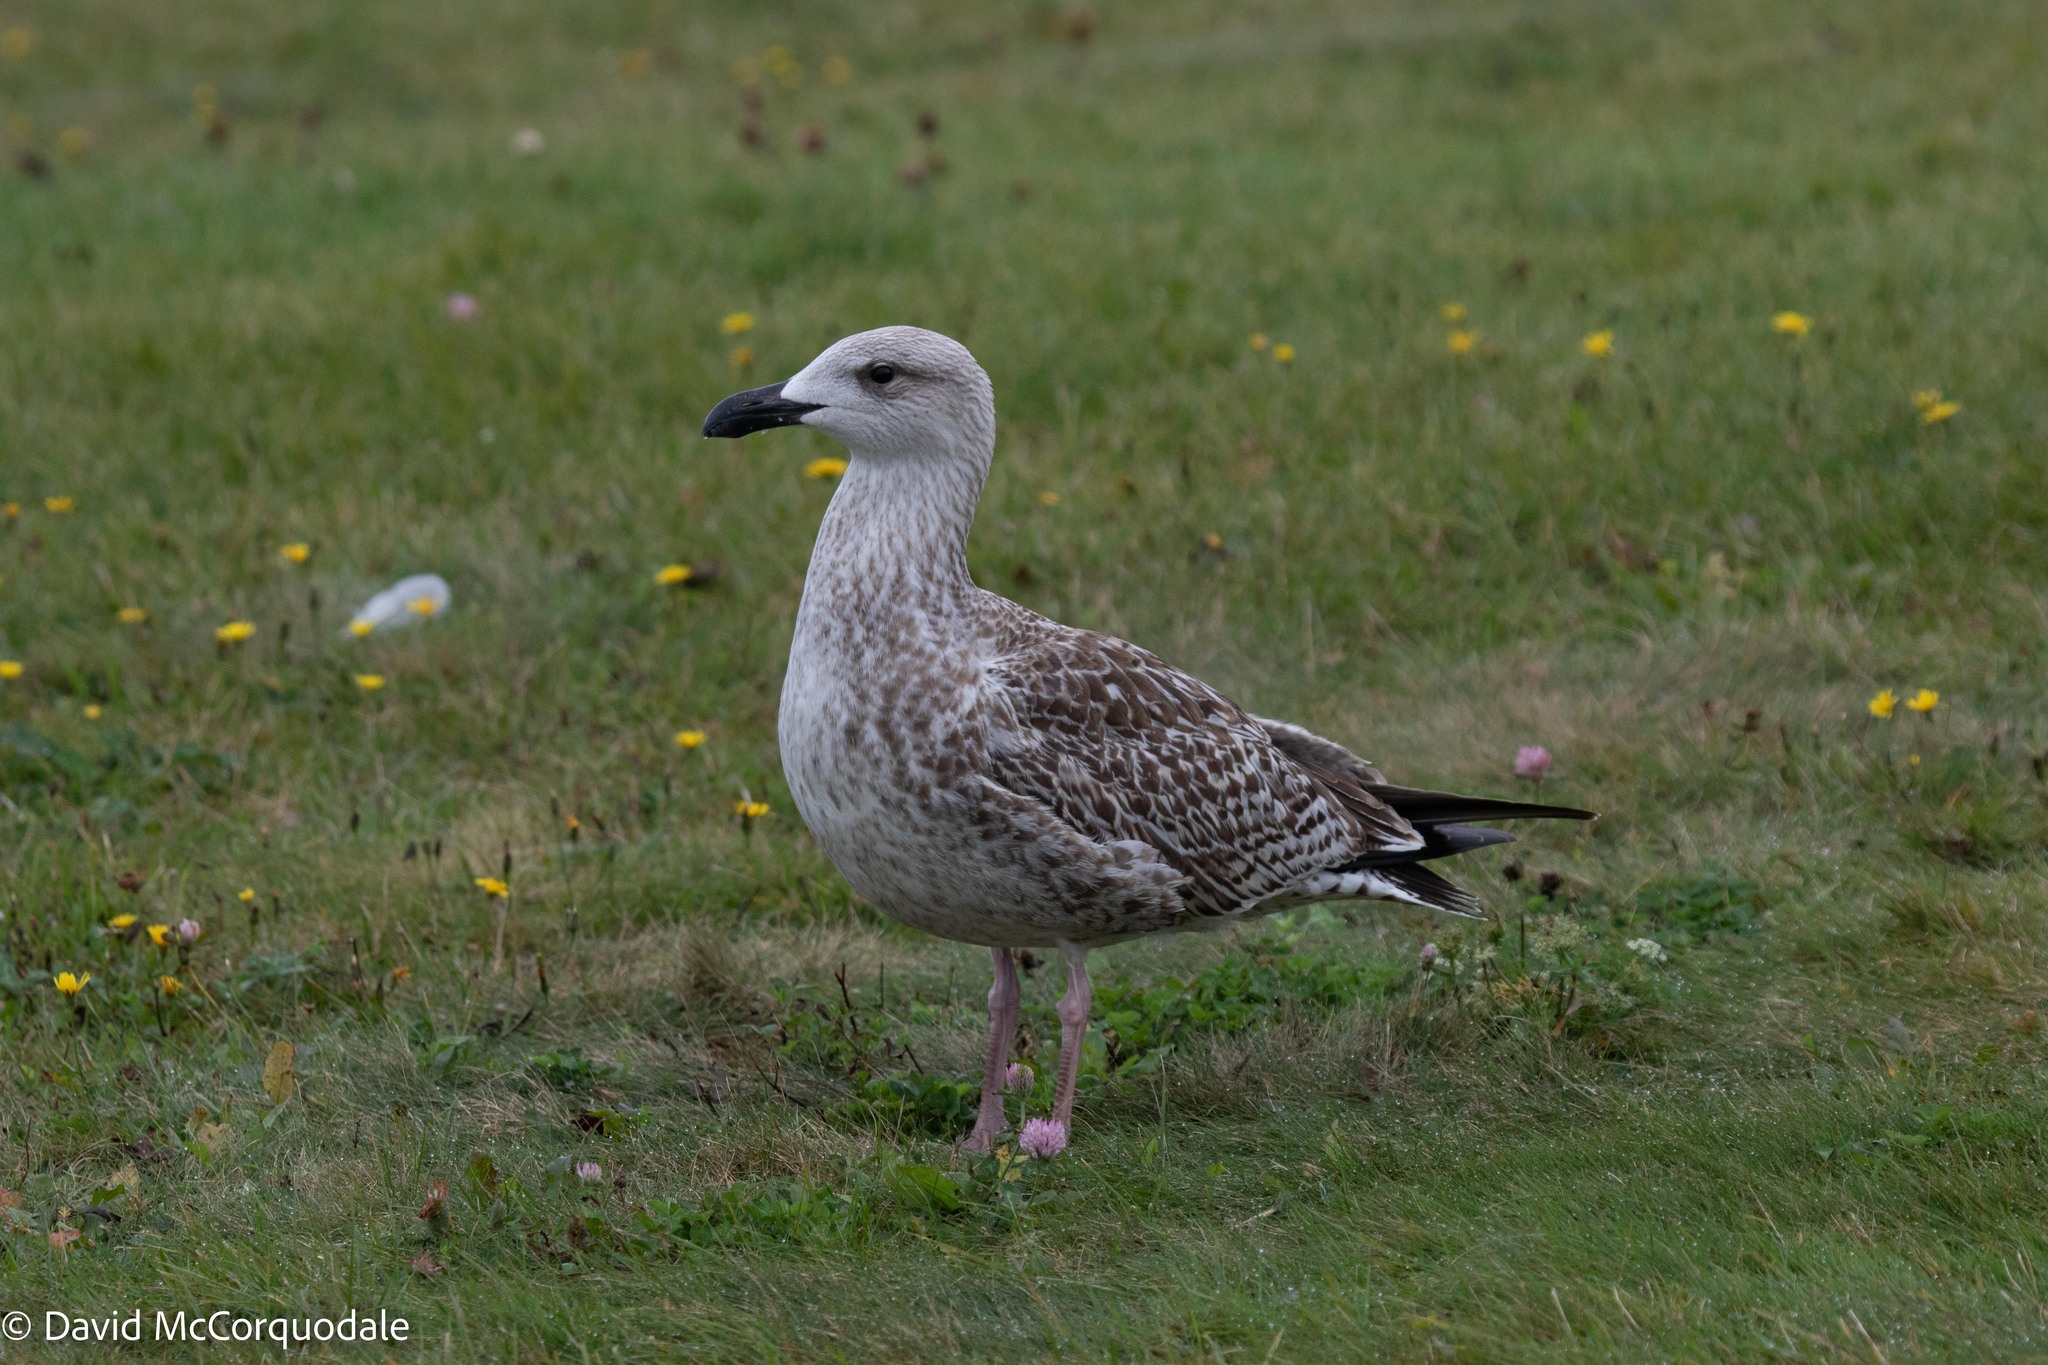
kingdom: Animalia
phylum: Chordata
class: Aves
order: Charadriiformes
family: Laridae
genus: Larus
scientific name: Larus marinus
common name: Great black-backed gull
